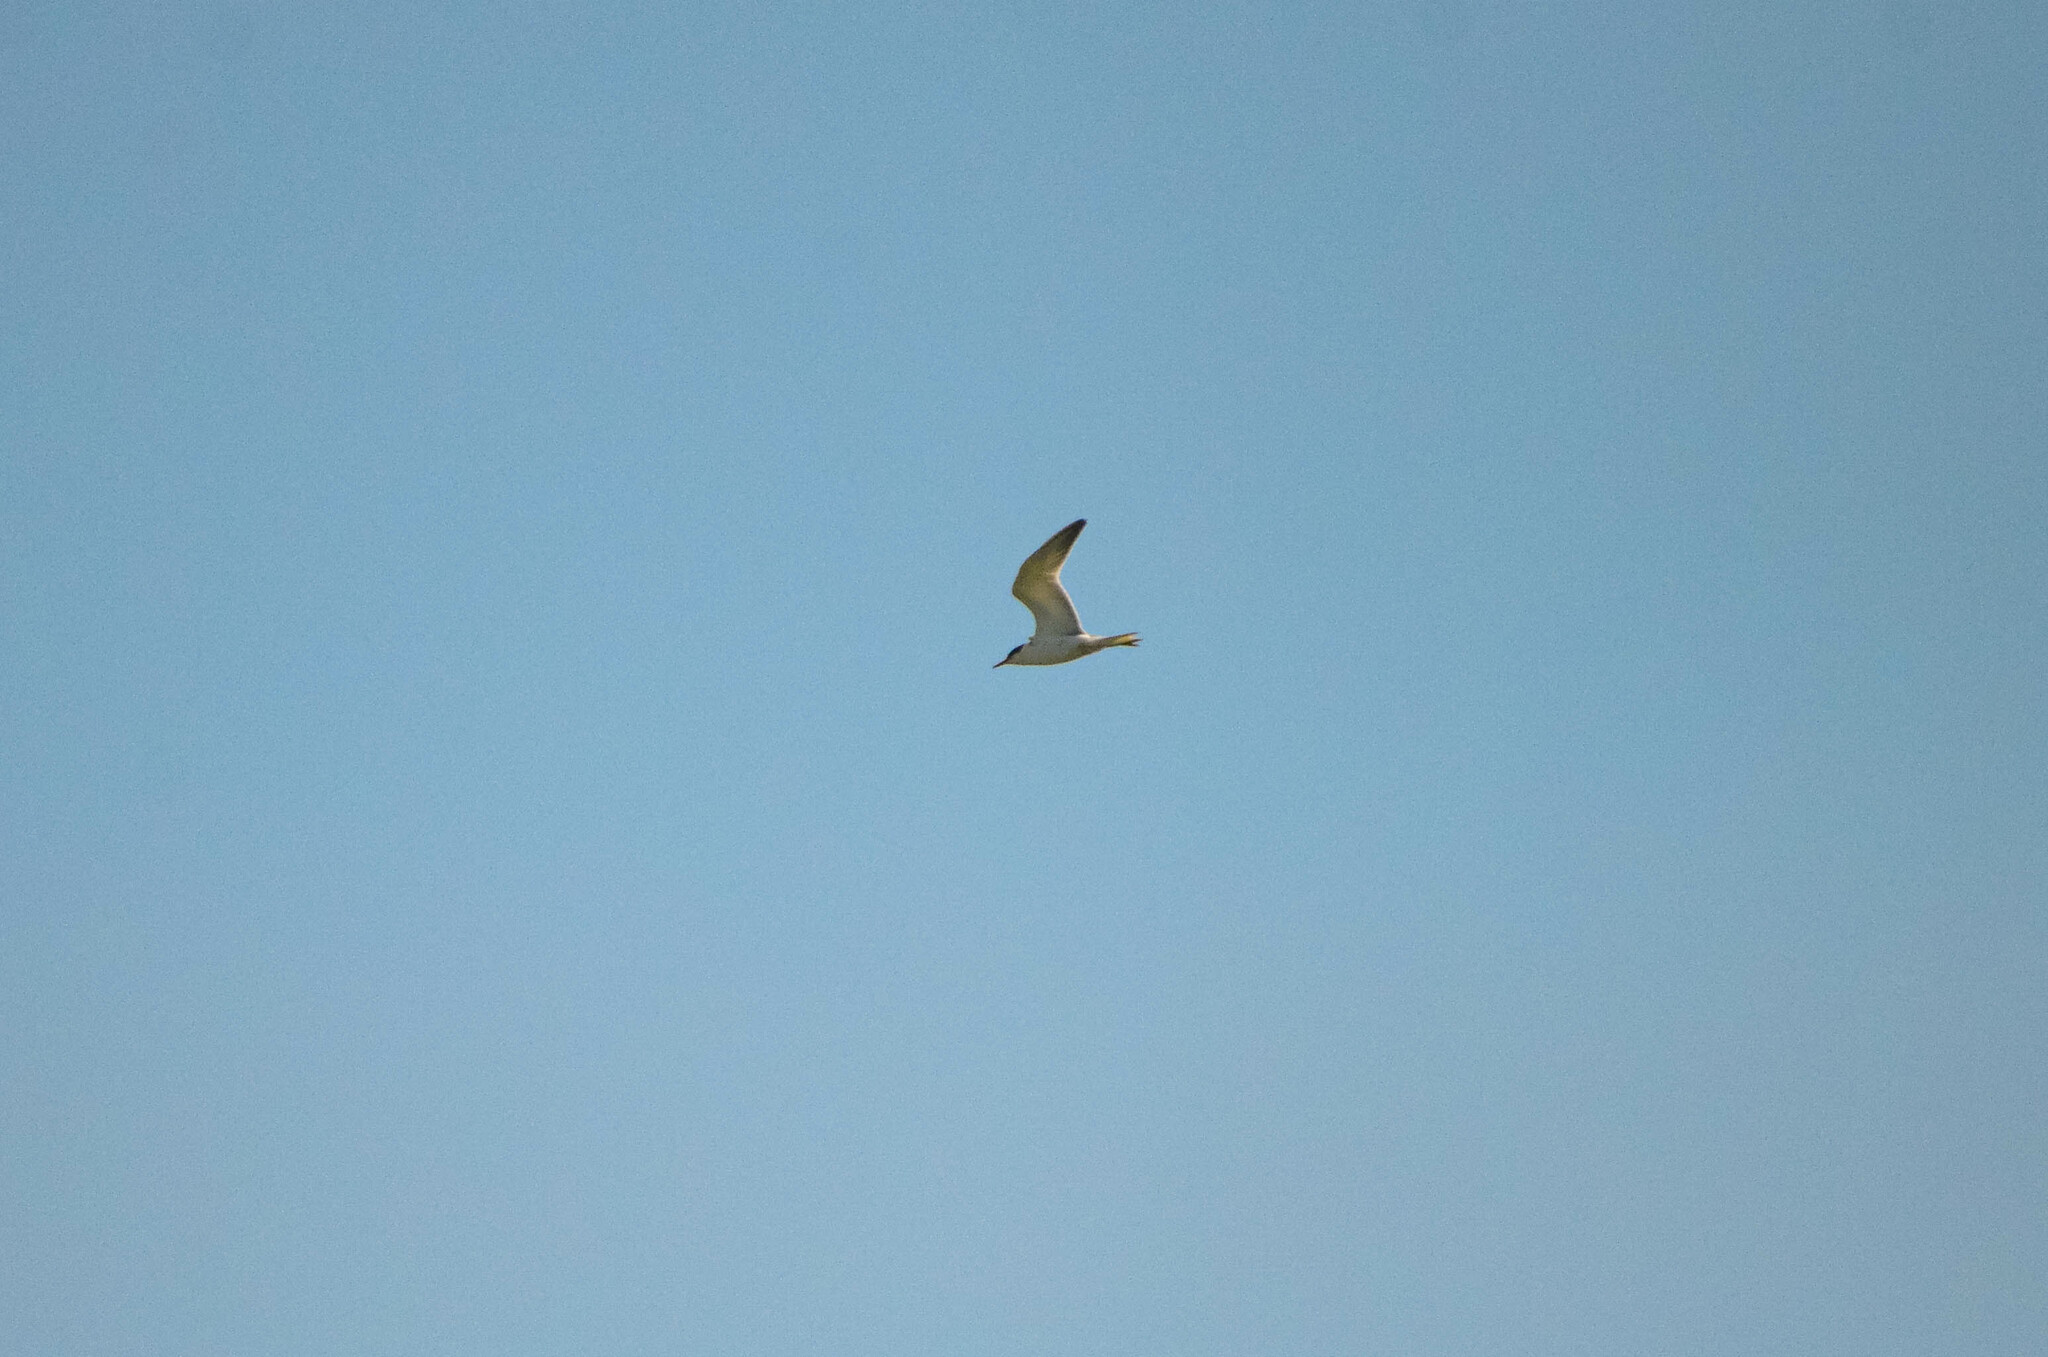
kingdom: Animalia
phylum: Chordata
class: Aves
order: Charadriiformes
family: Laridae
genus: Sterna
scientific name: Sterna hirundo
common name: Common tern
